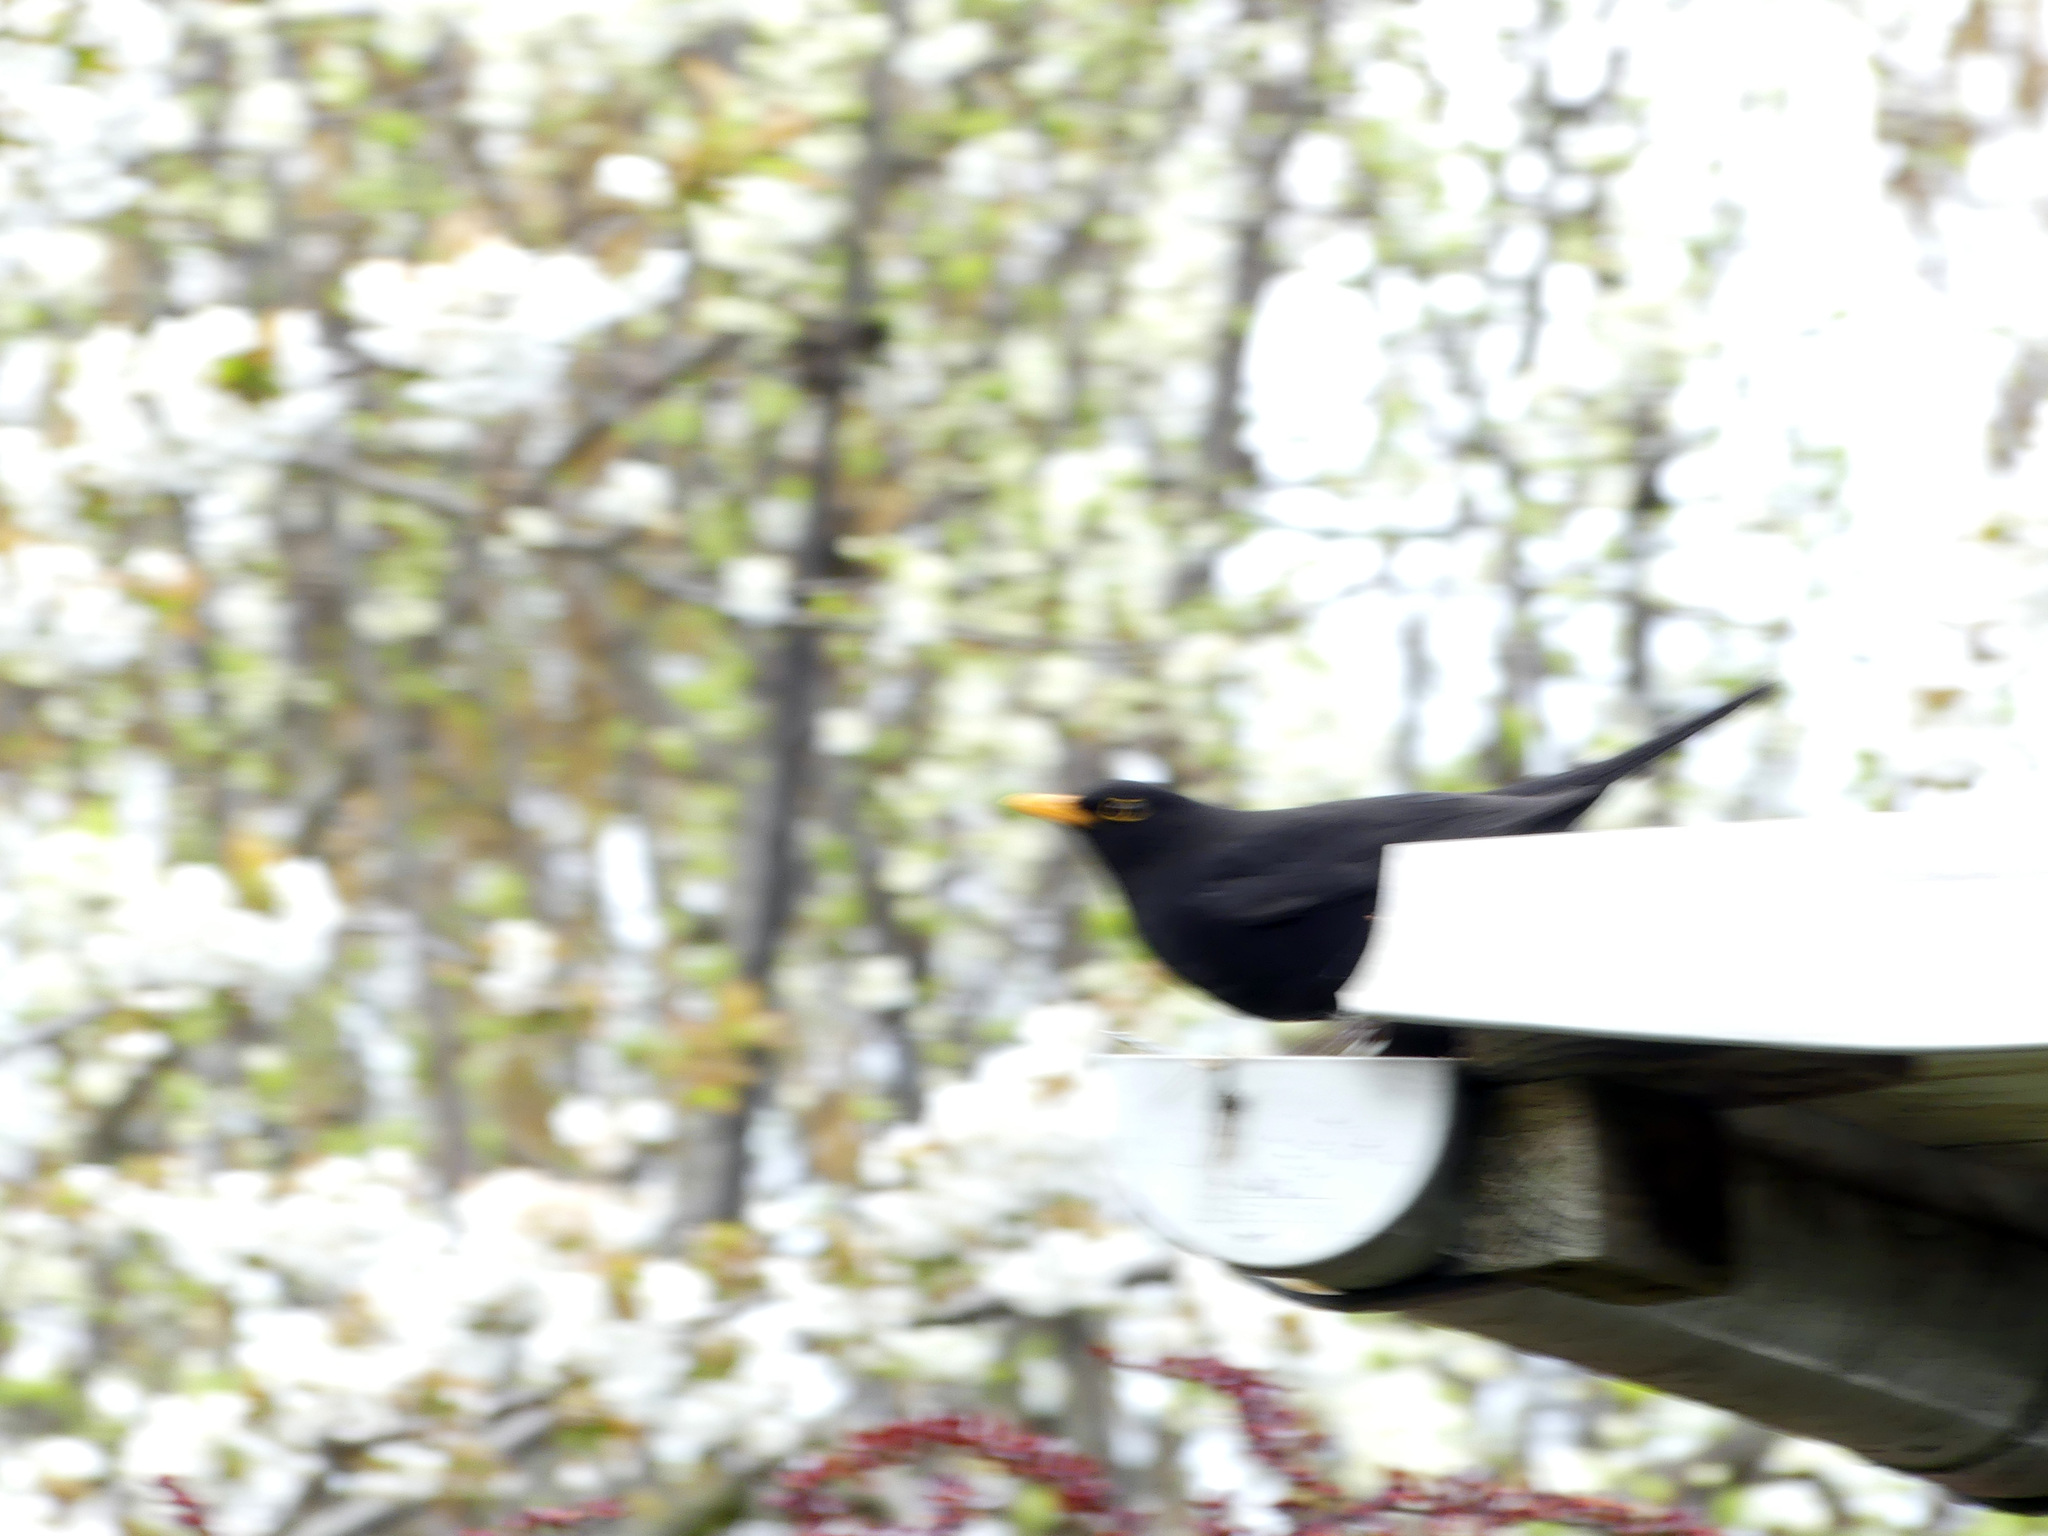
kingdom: Animalia
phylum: Chordata
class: Aves
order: Passeriformes
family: Turdidae
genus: Turdus
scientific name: Turdus merula
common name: Common blackbird
